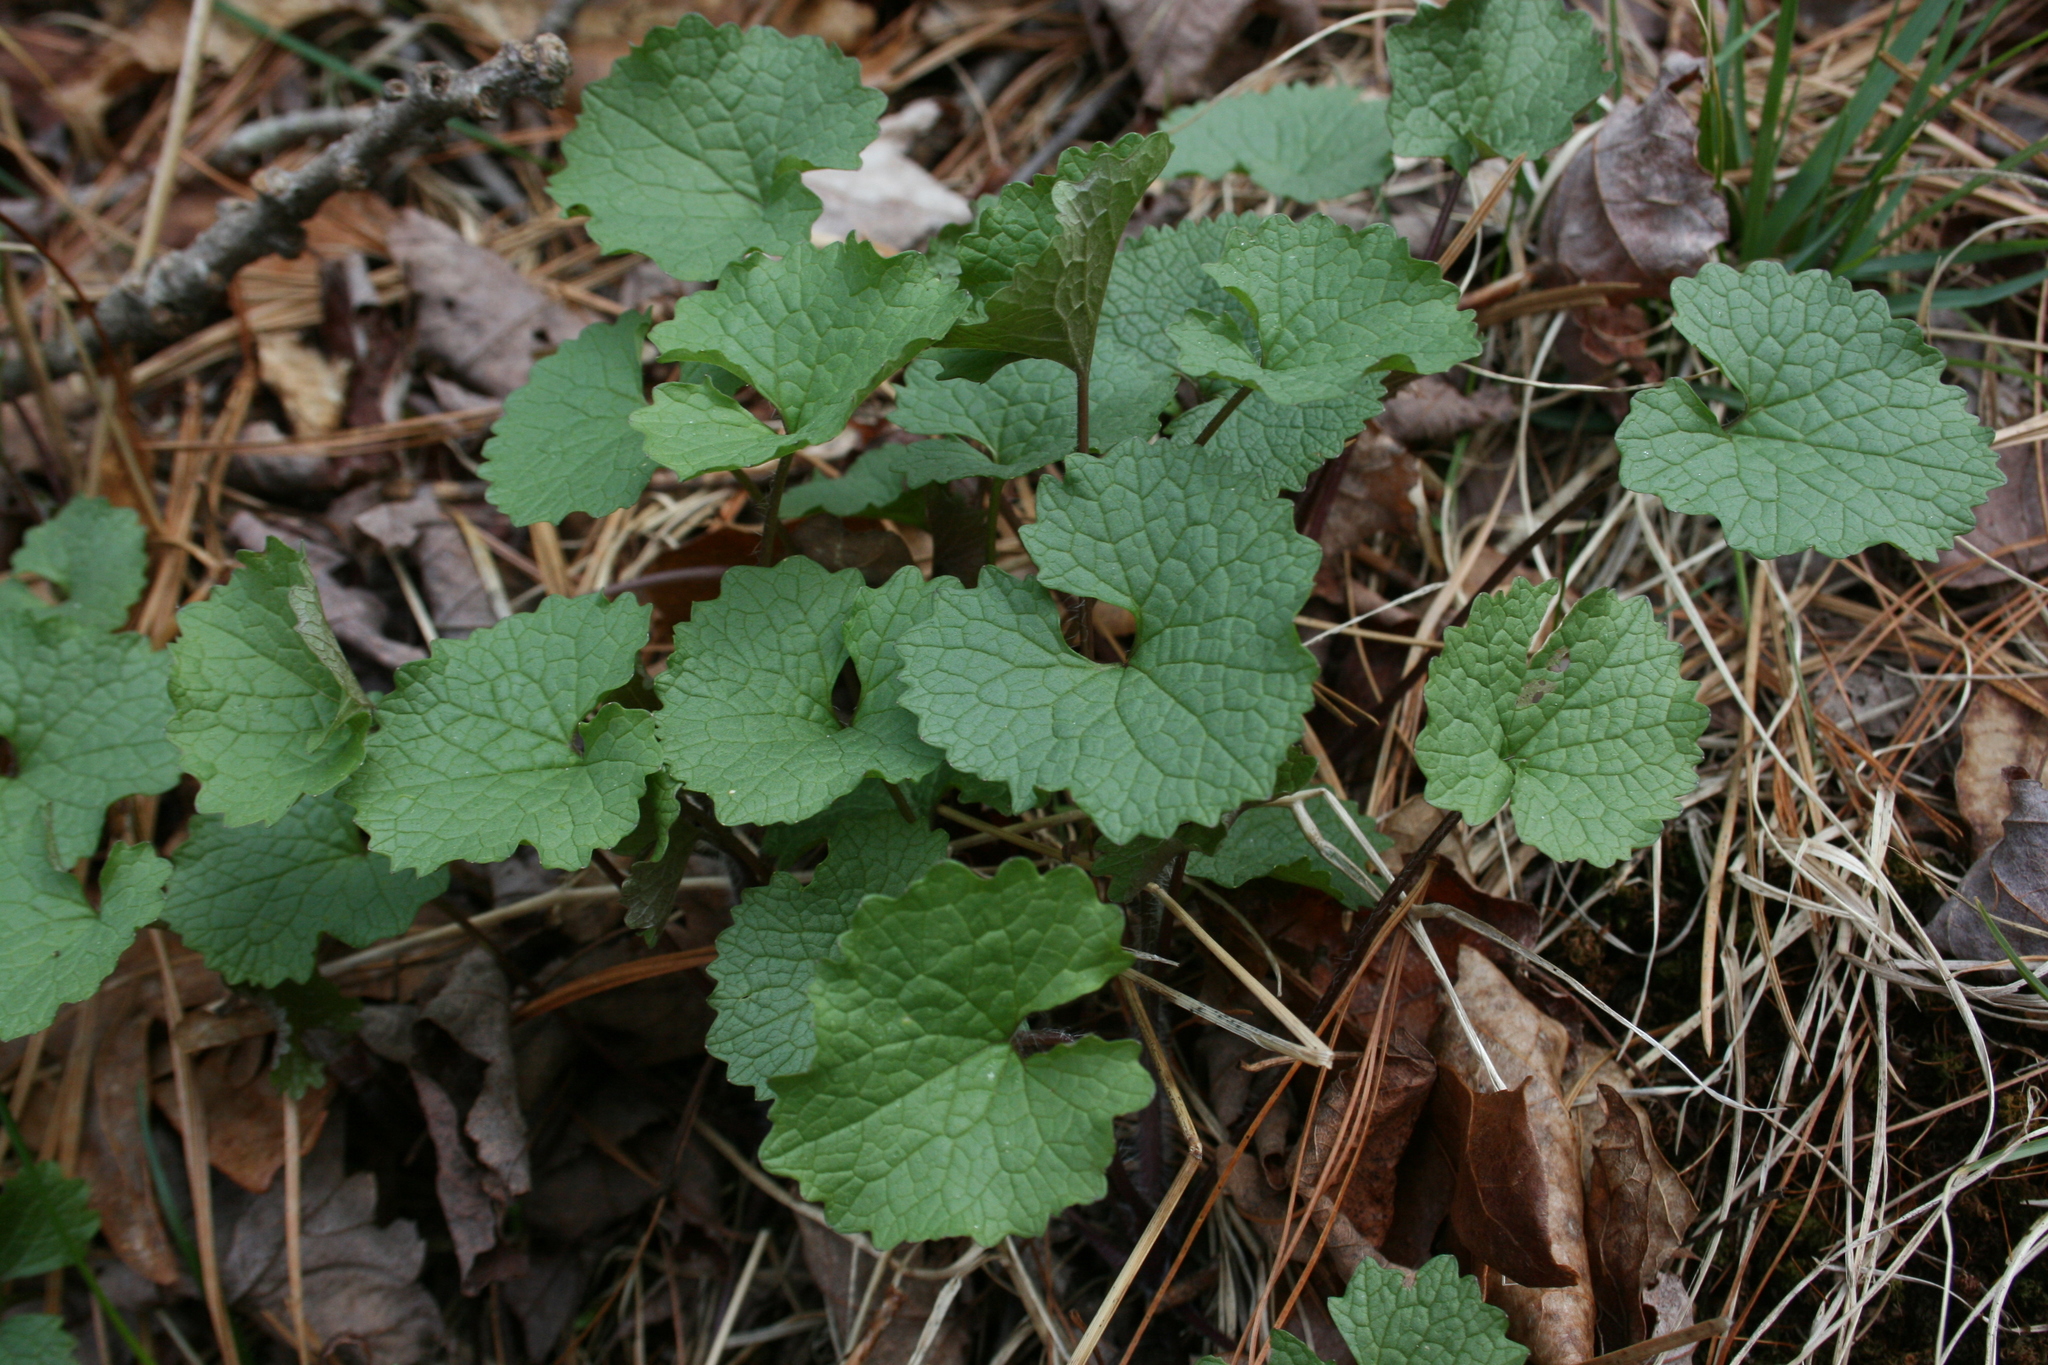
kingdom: Plantae
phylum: Tracheophyta
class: Magnoliopsida
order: Brassicales
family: Brassicaceae
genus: Alliaria
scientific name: Alliaria petiolata
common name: Garlic mustard
